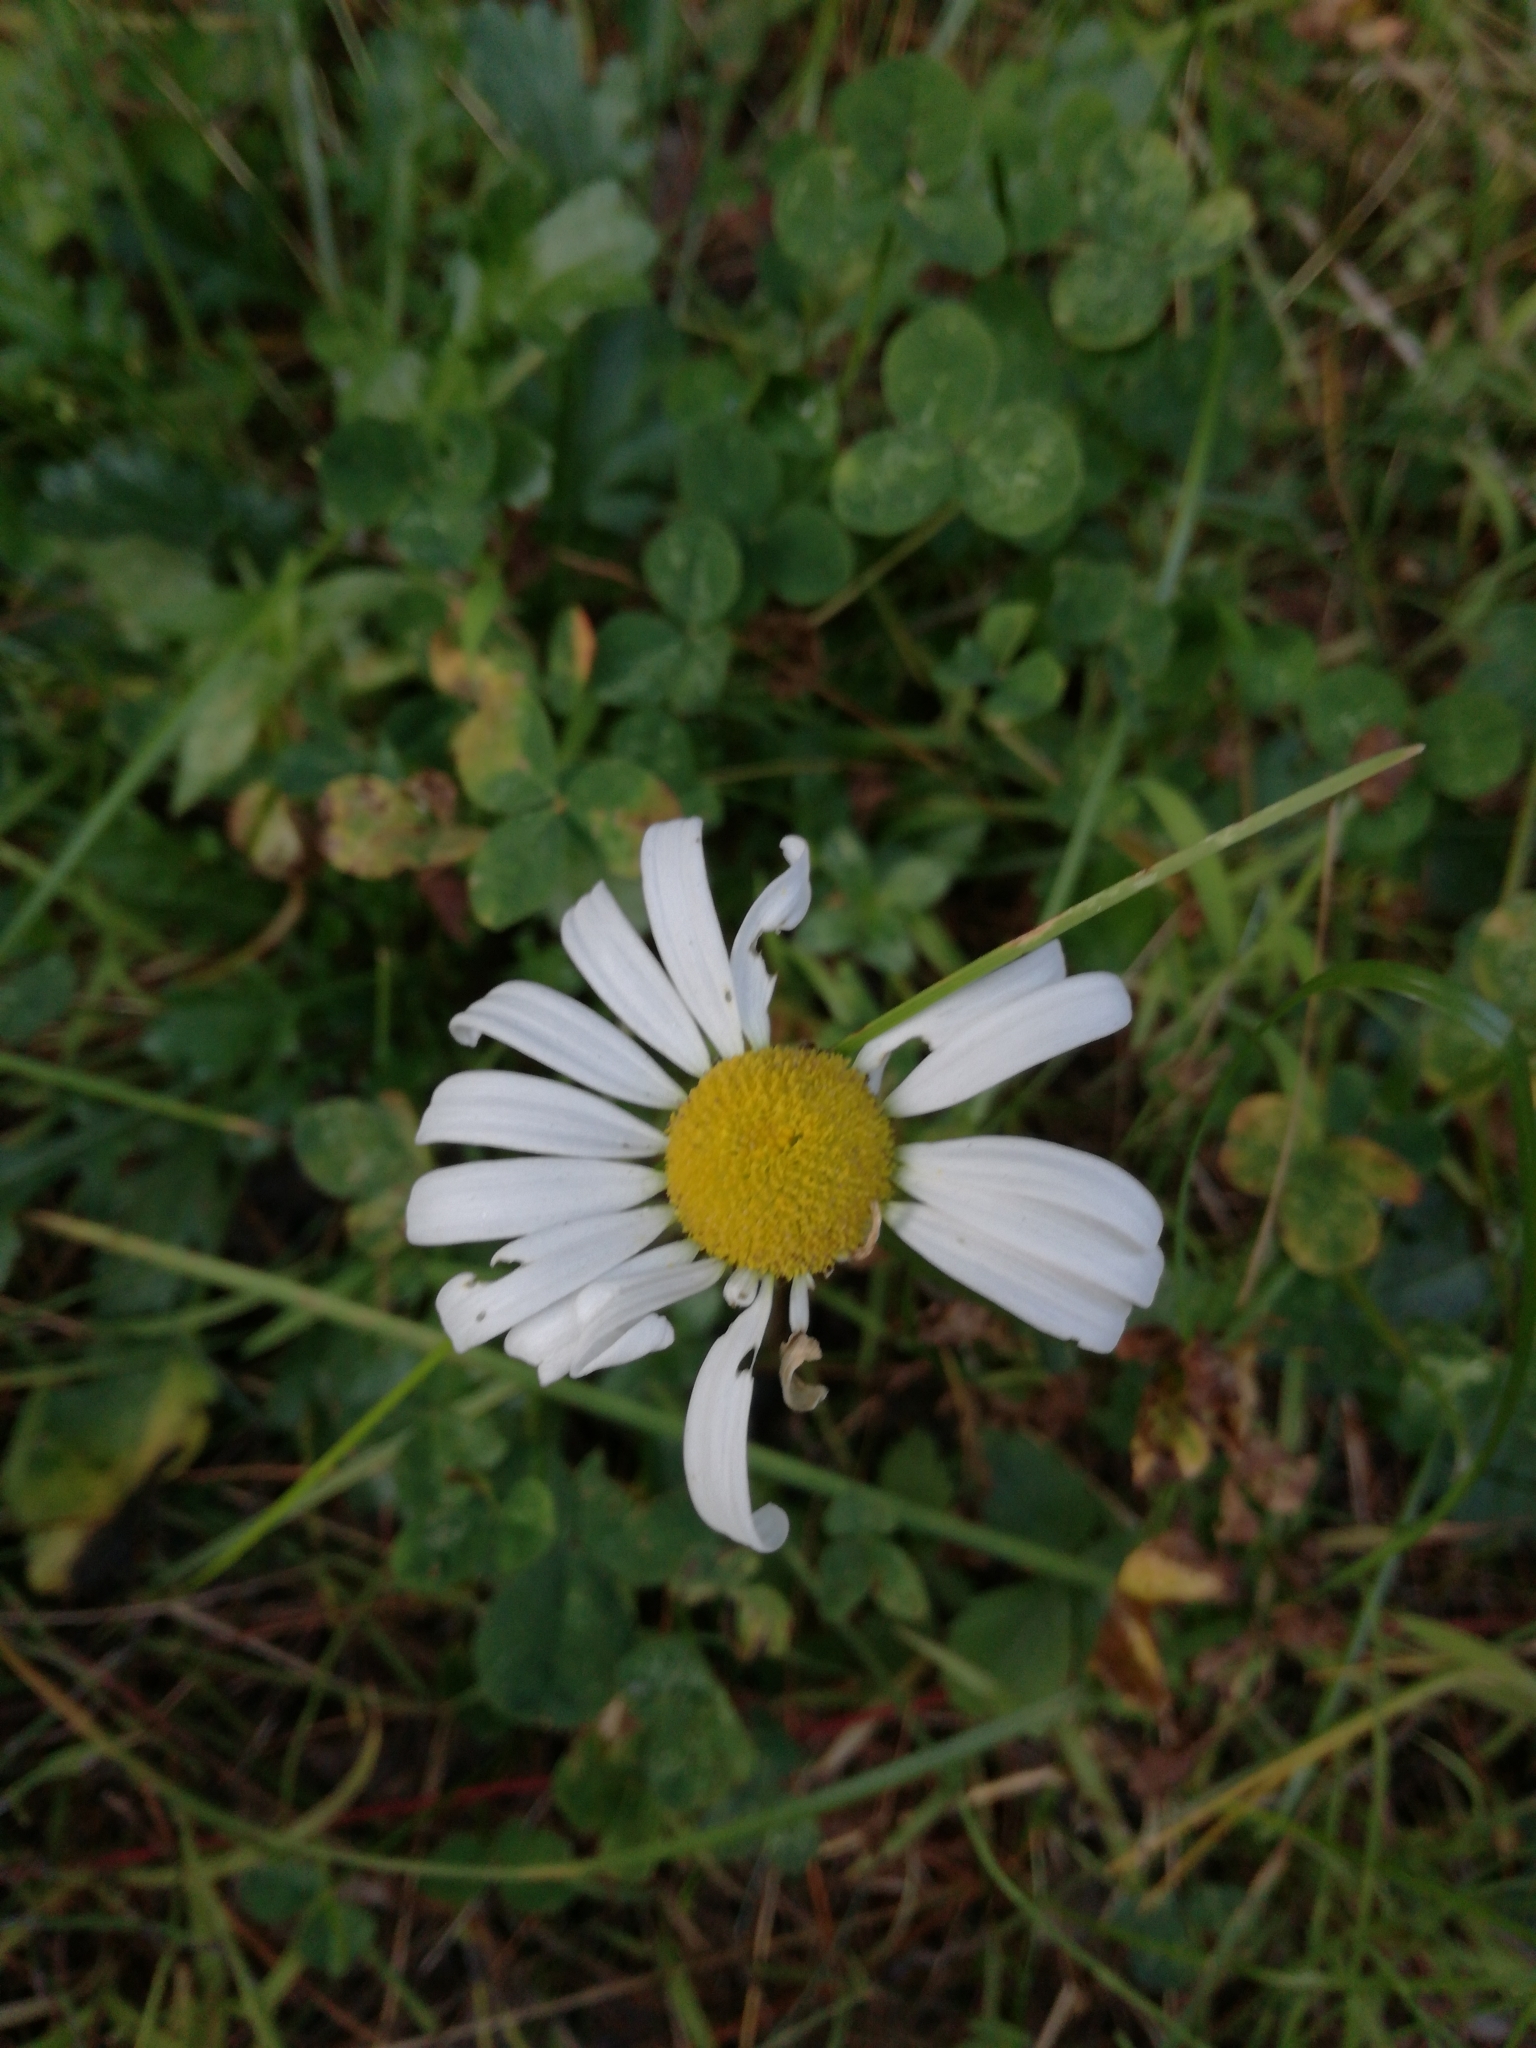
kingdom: Plantae
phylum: Tracheophyta
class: Magnoliopsida
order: Asterales
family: Asteraceae
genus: Leucanthemum
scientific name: Leucanthemum vulgare
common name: Oxeye daisy
